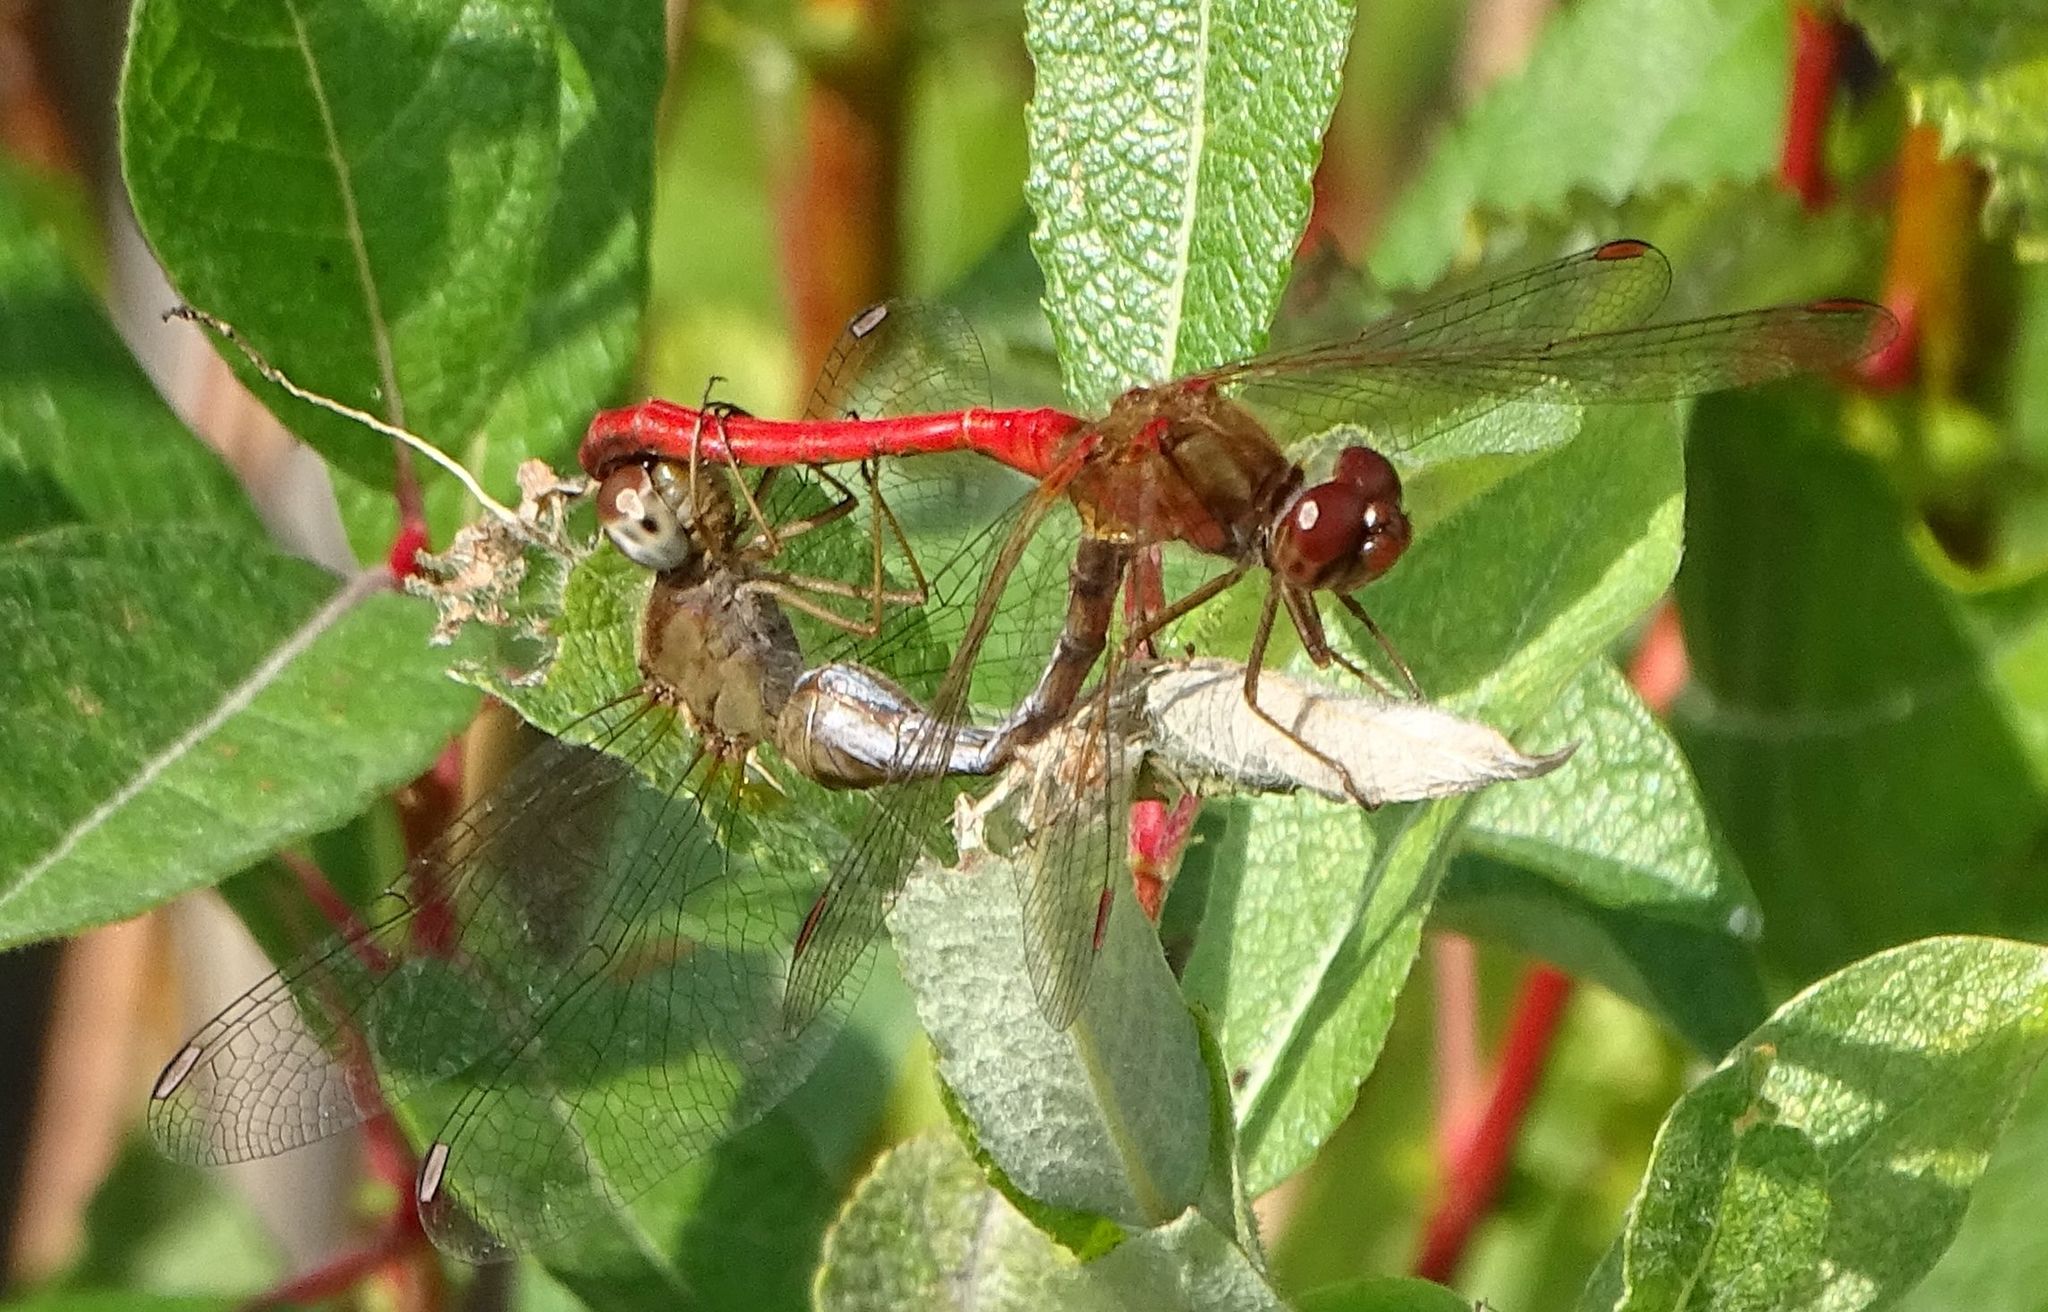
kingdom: Animalia
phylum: Arthropoda
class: Insecta
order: Odonata
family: Libellulidae
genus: Sympetrum
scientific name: Sympetrum vicinum
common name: Autumn meadowhawk
